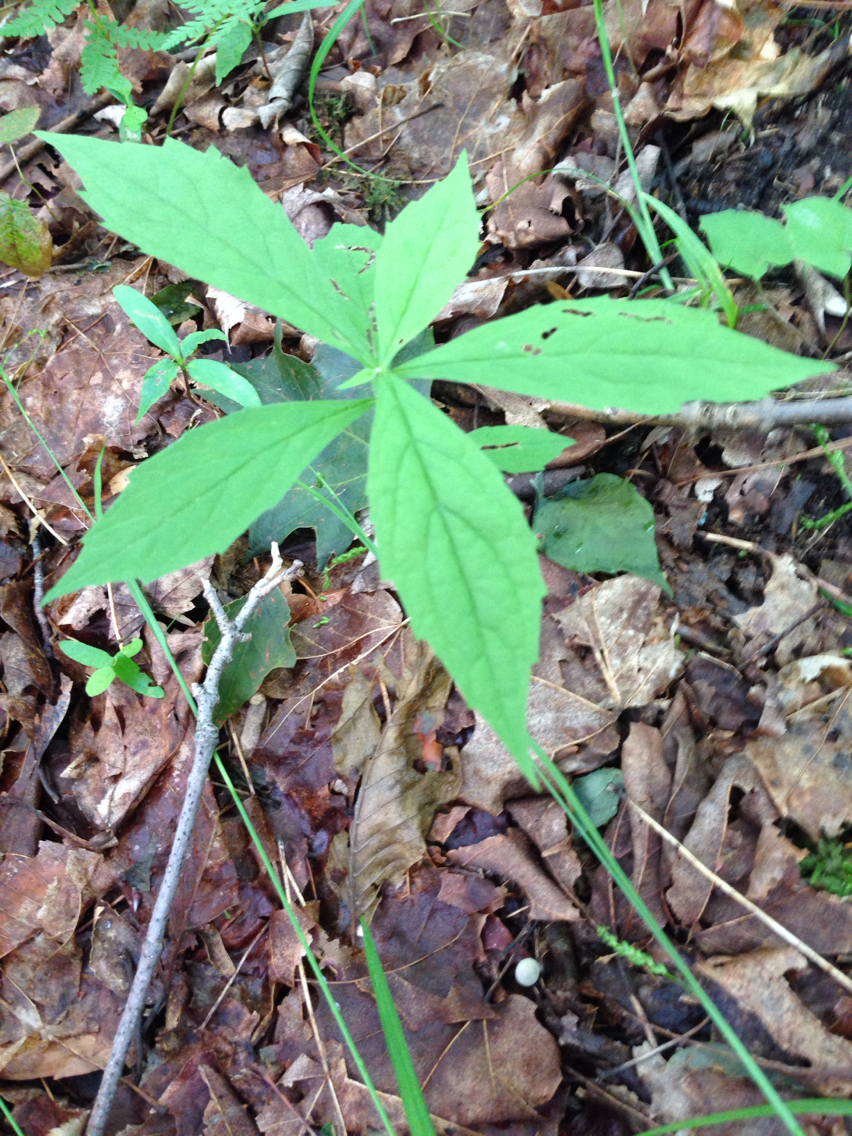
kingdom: Plantae
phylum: Tracheophyta
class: Magnoliopsida
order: Asterales
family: Asteraceae
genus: Oclemena
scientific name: Oclemena acuminata
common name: Mountain aster
